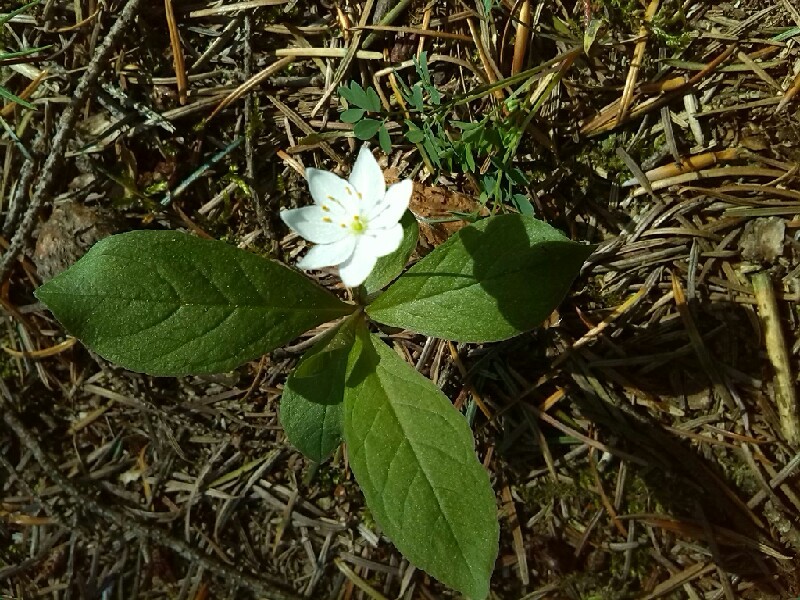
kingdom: Plantae
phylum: Tracheophyta
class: Magnoliopsida
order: Ericales
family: Primulaceae
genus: Lysimachia
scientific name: Lysimachia europaea
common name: Arctic starflower
